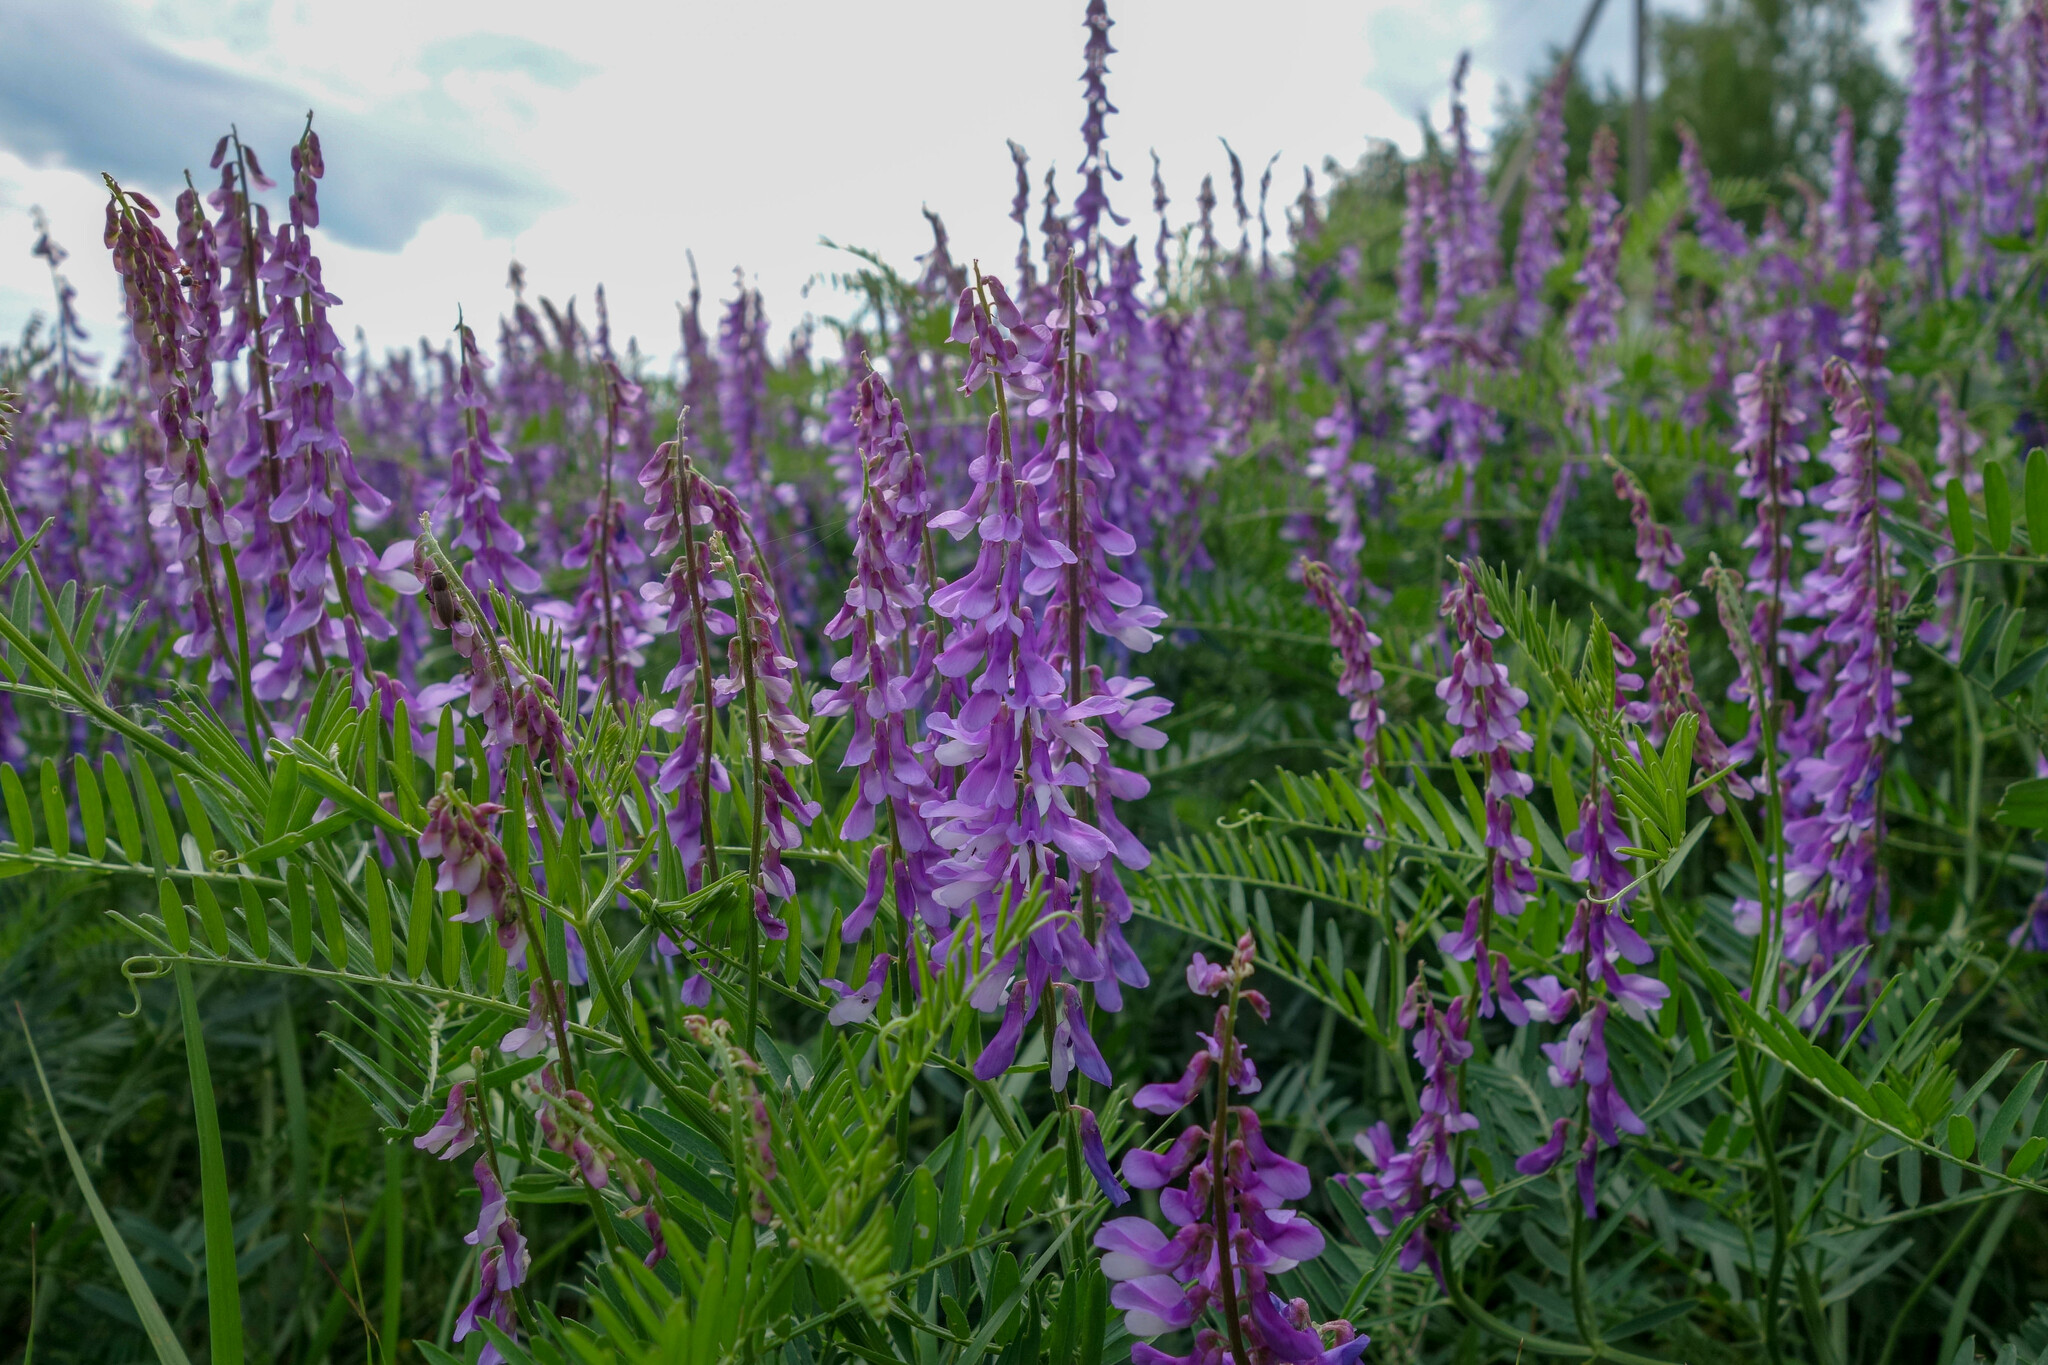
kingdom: Plantae
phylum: Tracheophyta
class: Magnoliopsida
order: Fabales
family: Fabaceae
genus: Vicia
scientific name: Vicia tenuifolia
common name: Fine-leaved vetch
